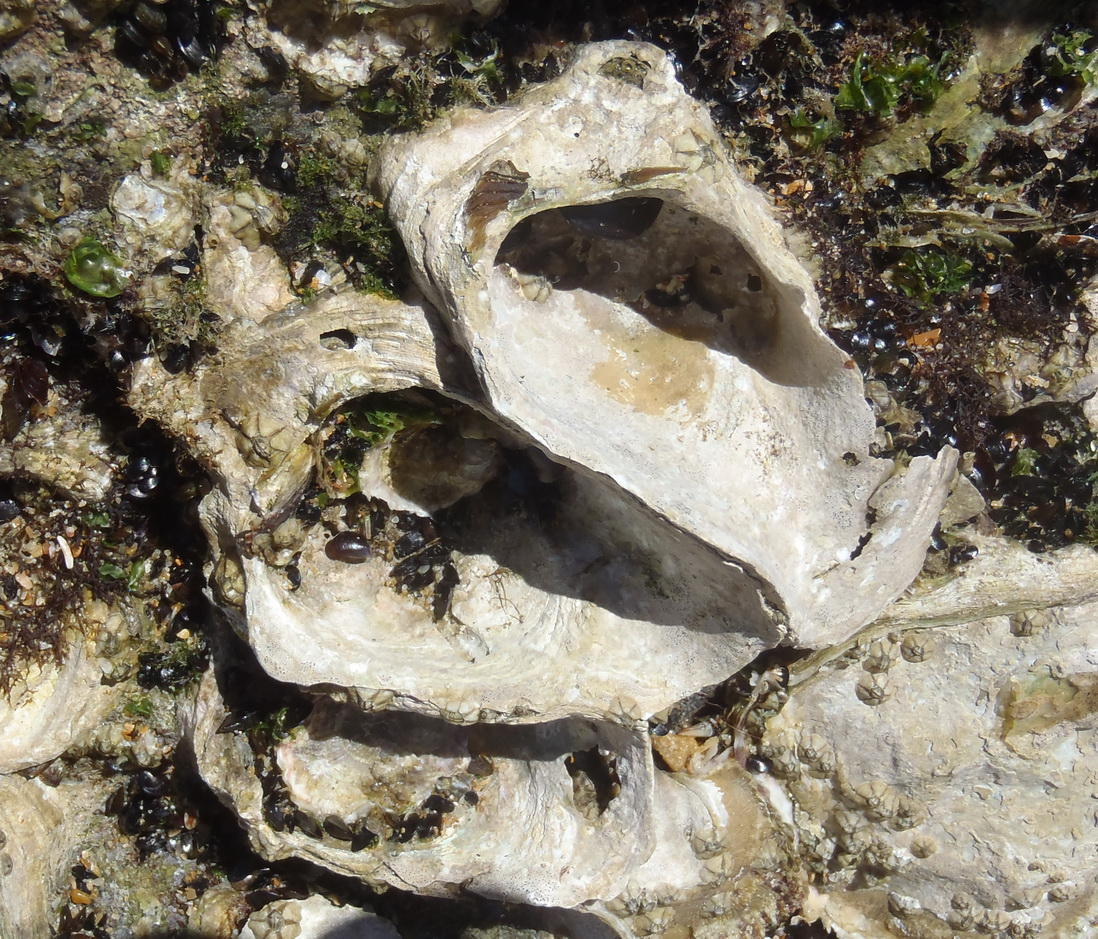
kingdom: Animalia
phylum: Mollusca
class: Bivalvia
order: Ostreida
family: Ostreidae
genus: Striostrea
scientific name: Striostrea margaritacea
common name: Cape rock oyster
